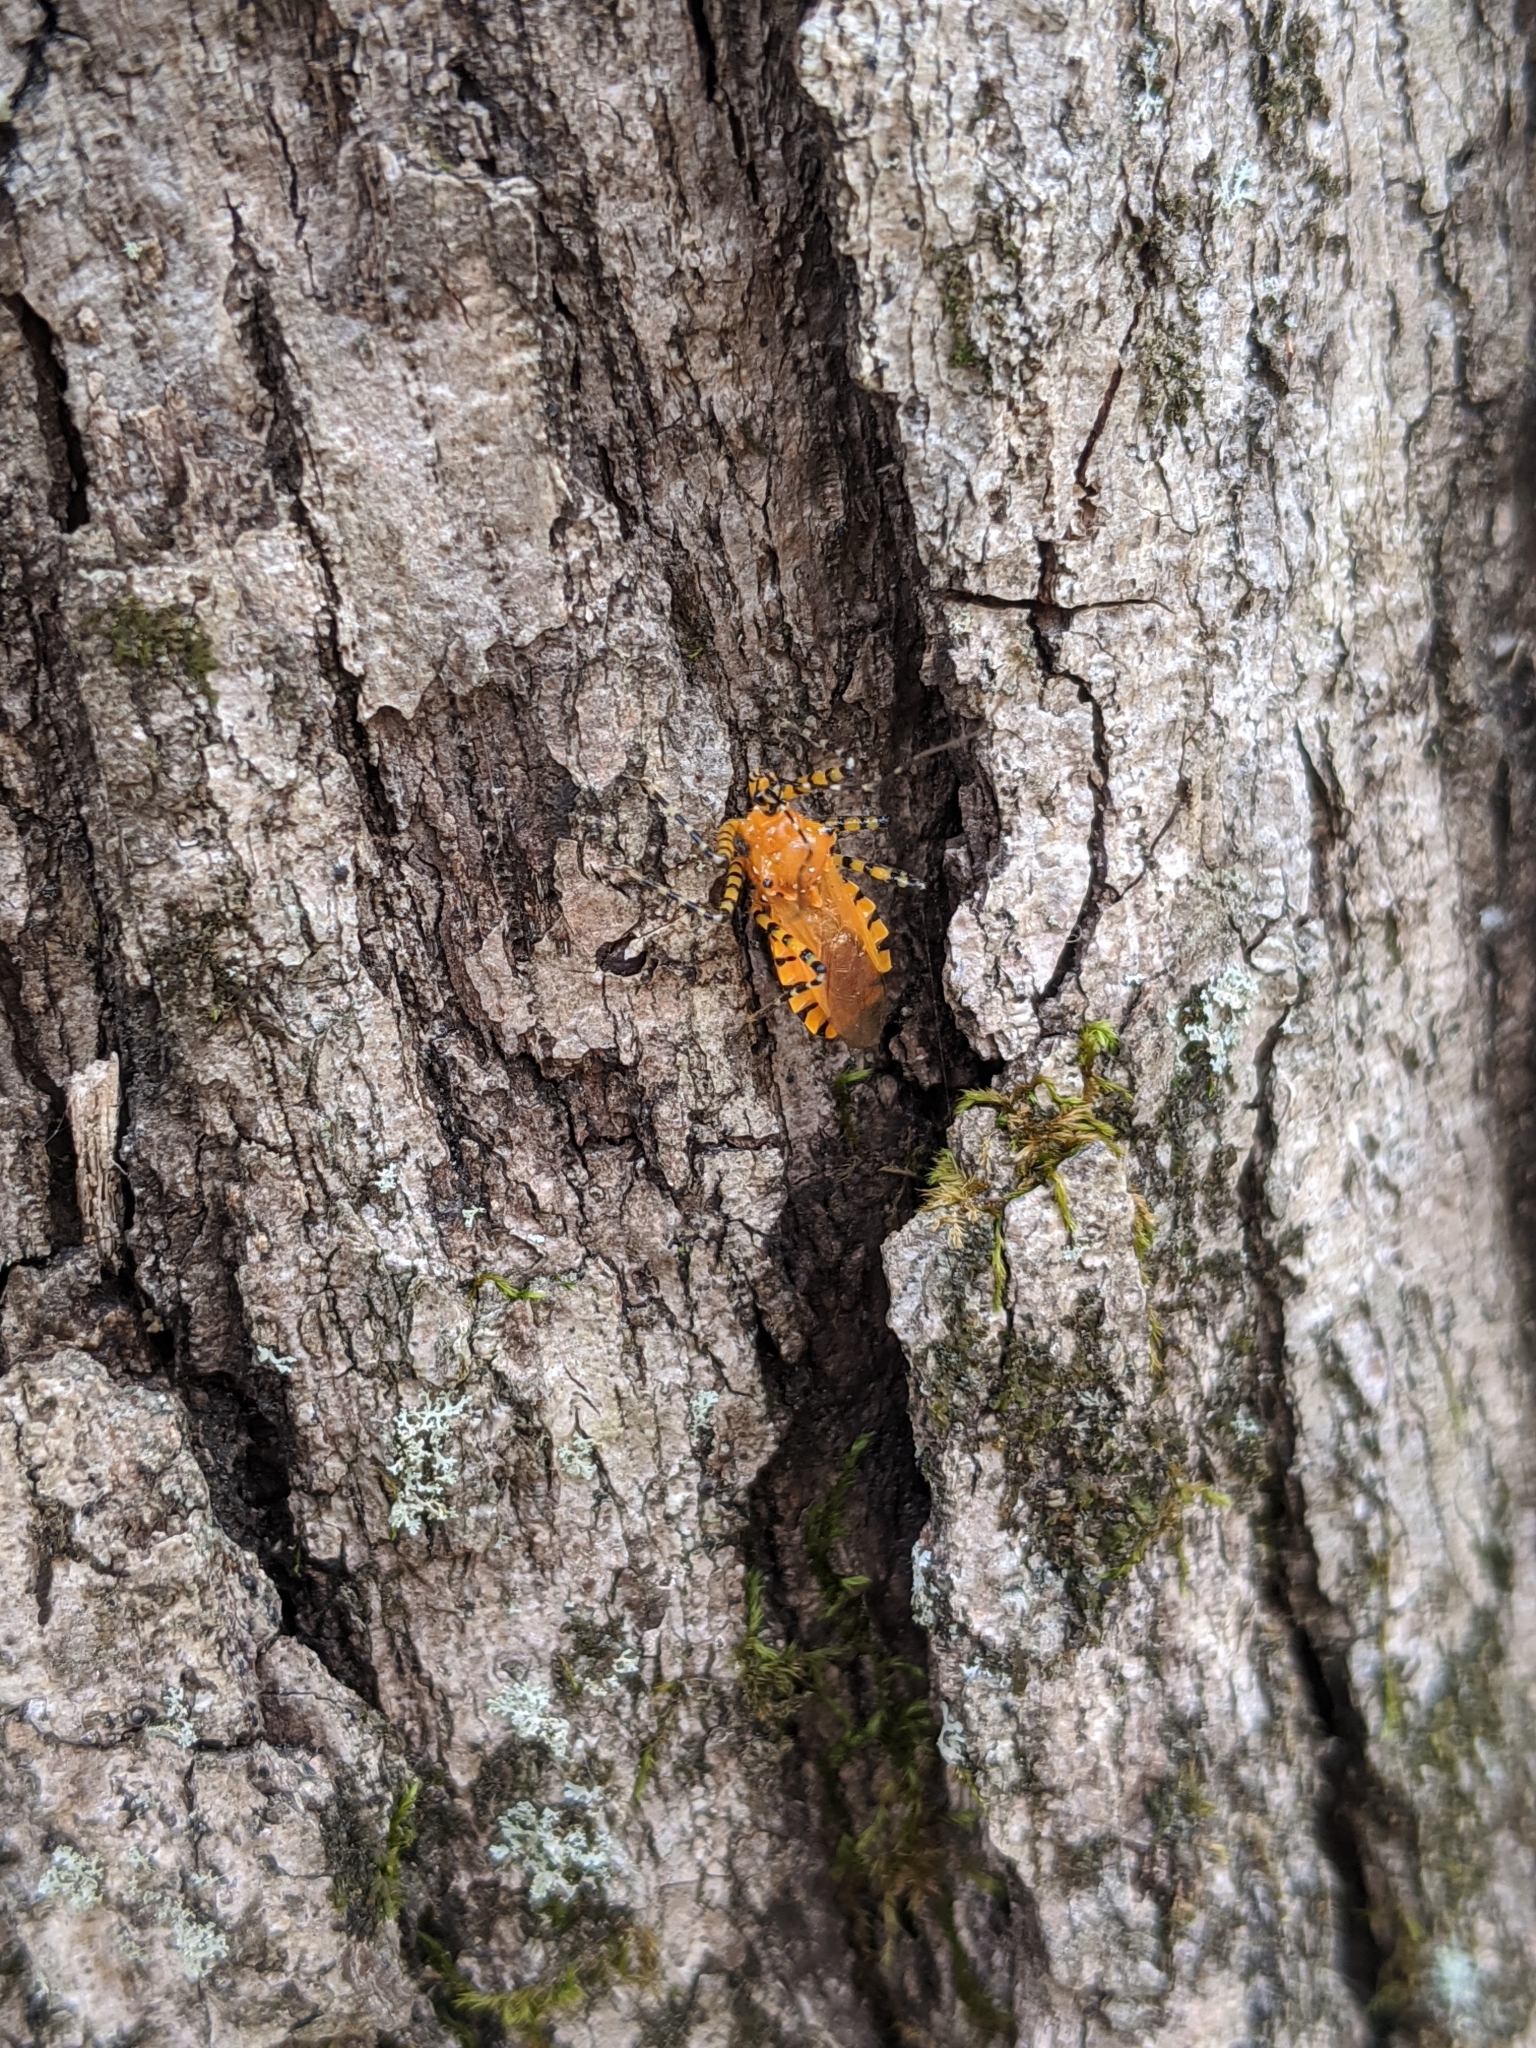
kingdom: Animalia
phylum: Arthropoda
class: Insecta
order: Hemiptera
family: Reduviidae
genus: Pselliopus
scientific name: Pselliopus barberi
